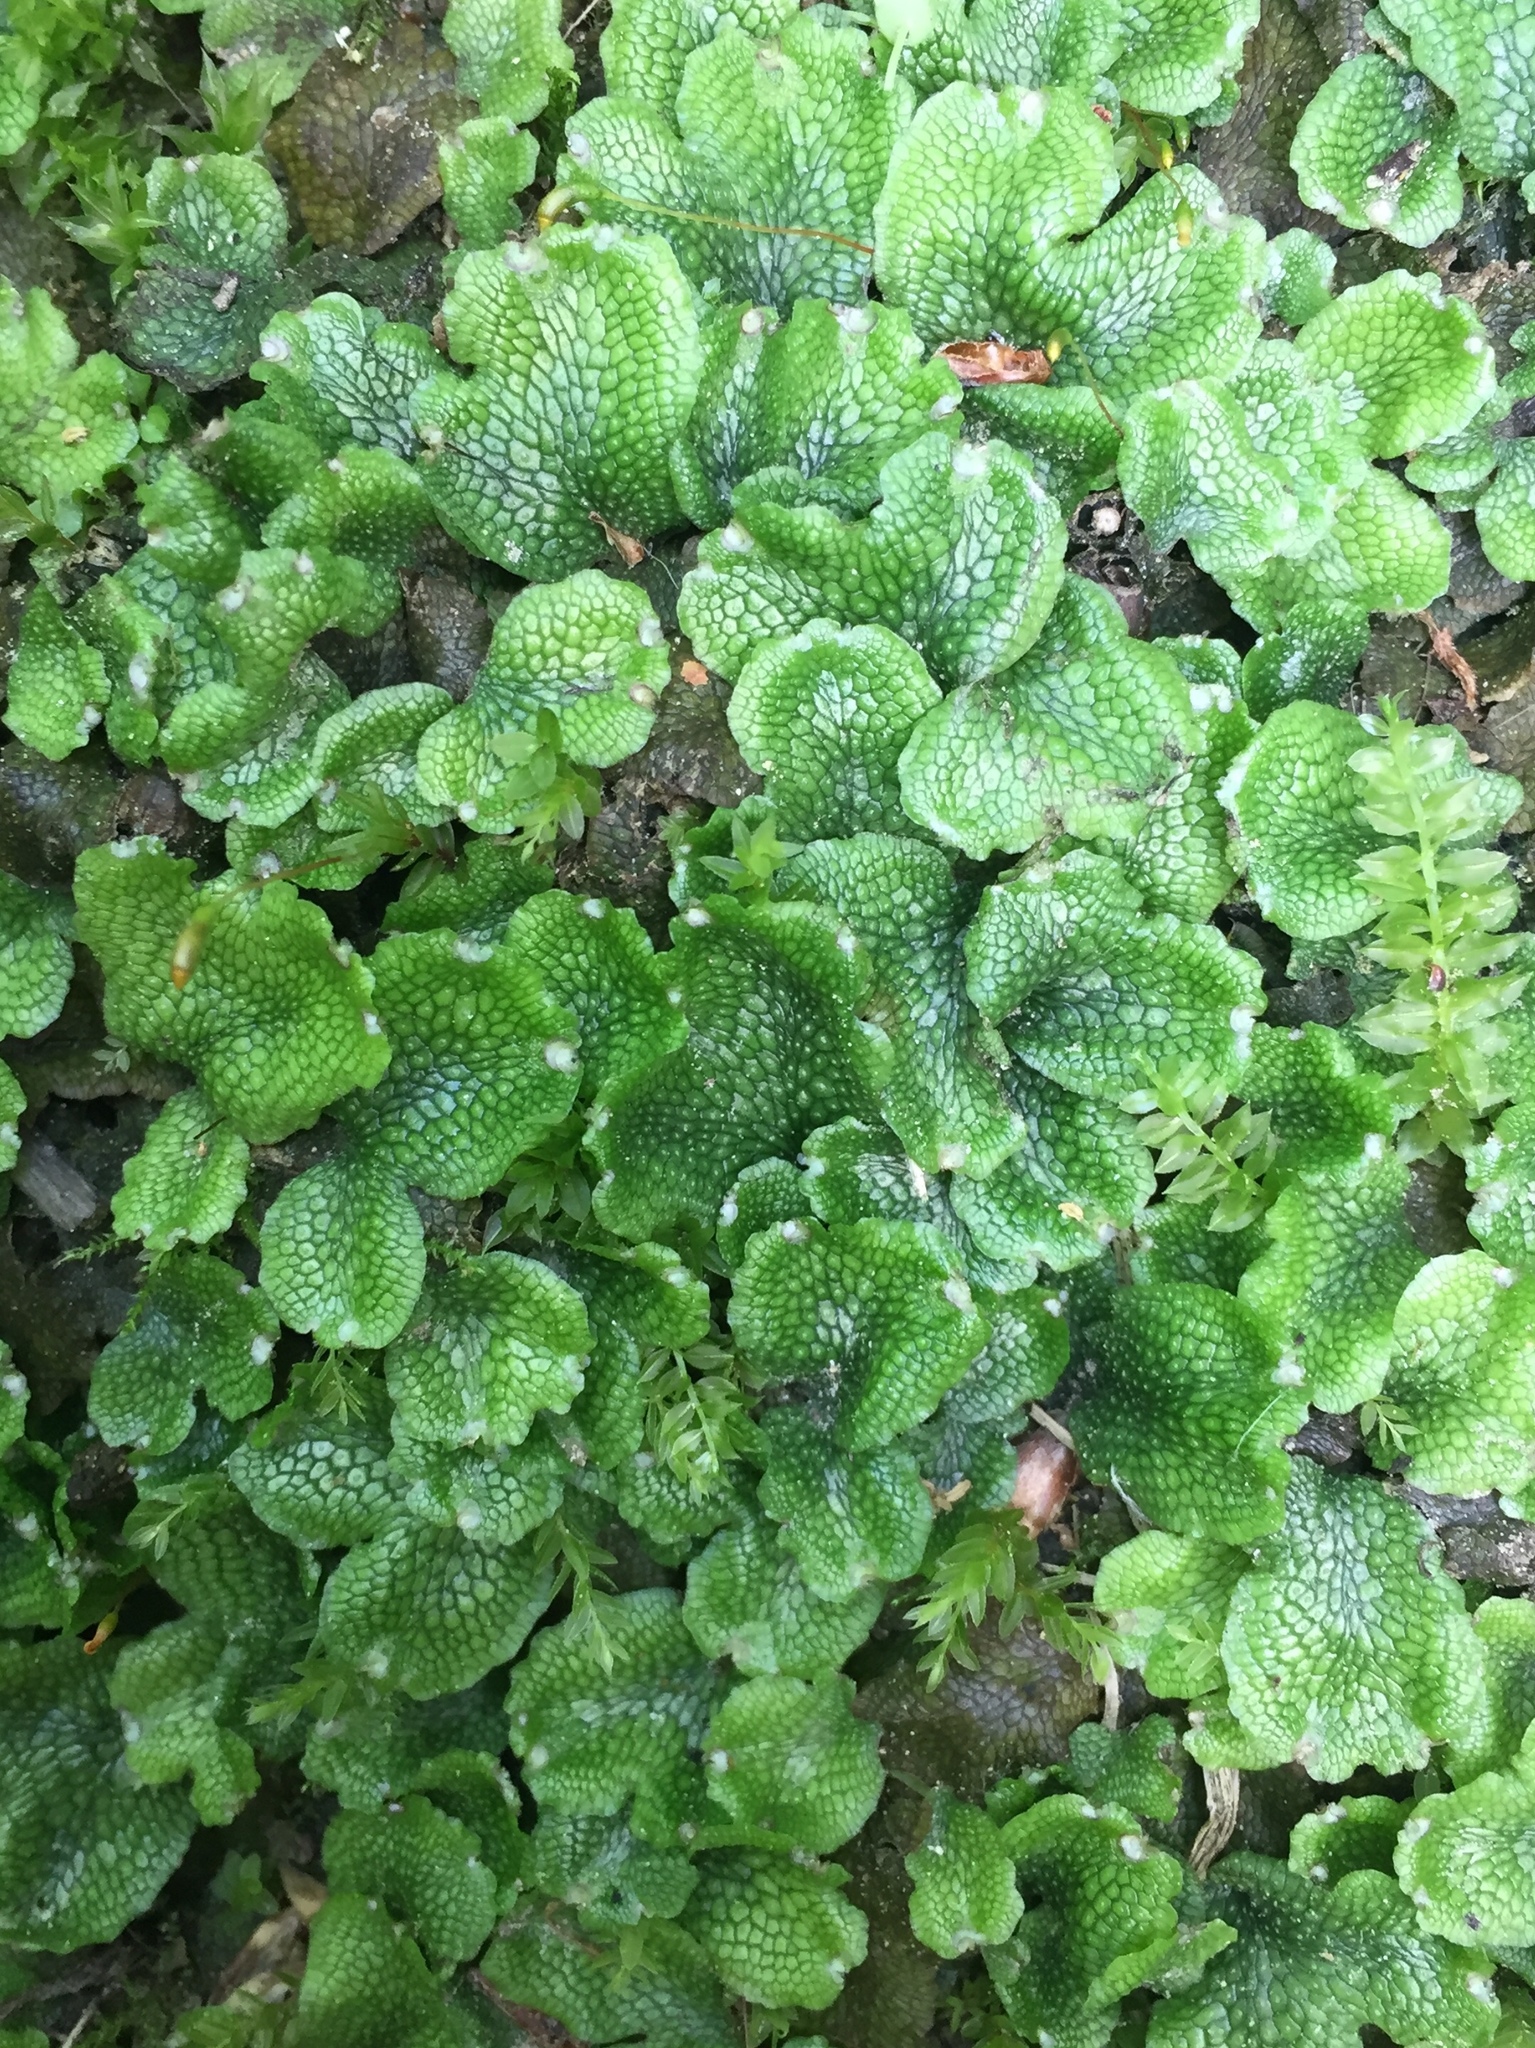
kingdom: Plantae
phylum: Marchantiophyta
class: Marchantiopsida
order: Marchantiales
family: Conocephalaceae
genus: Conocephalum
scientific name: Conocephalum salebrosum
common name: Cat-tongue liverwort
